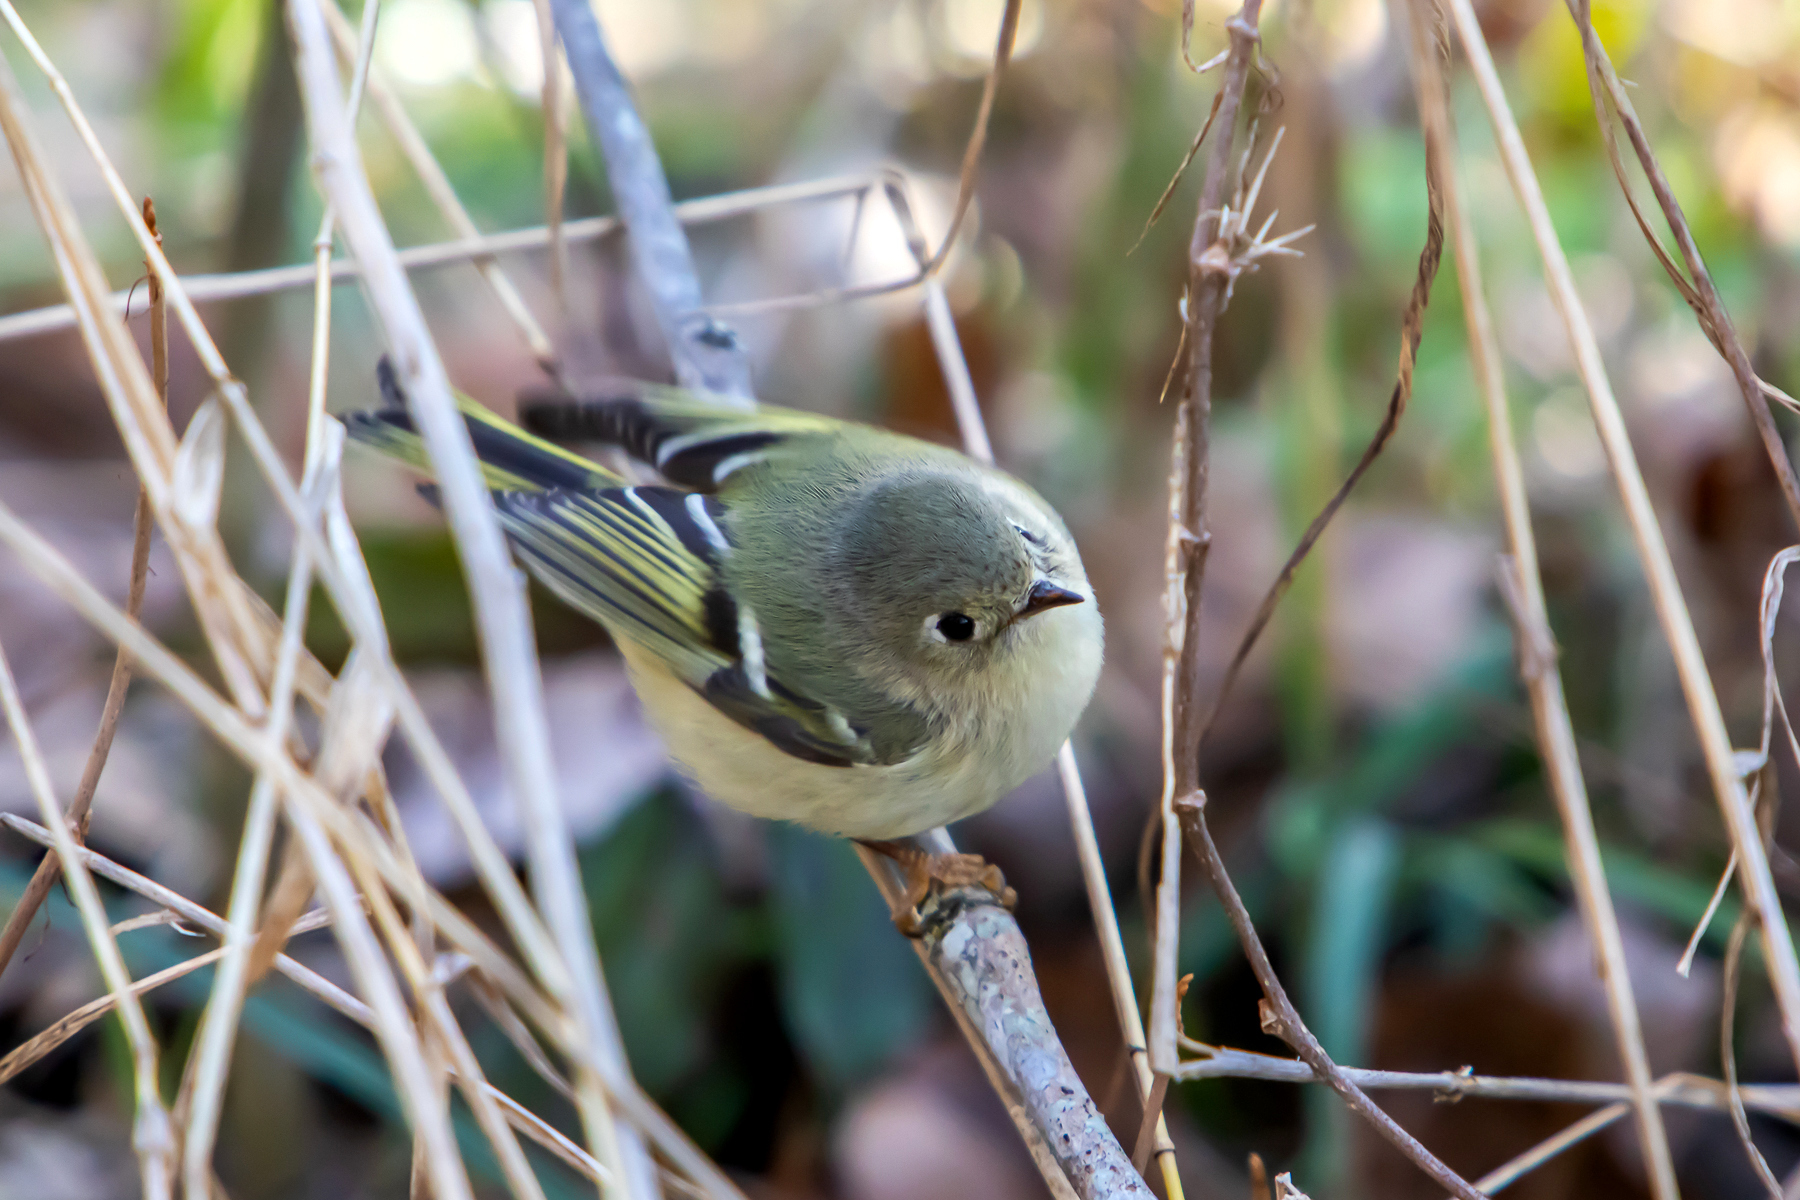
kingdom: Animalia
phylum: Chordata
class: Aves
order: Passeriformes
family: Regulidae
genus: Regulus
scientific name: Regulus calendula
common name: Ruby-crowned kinglet
